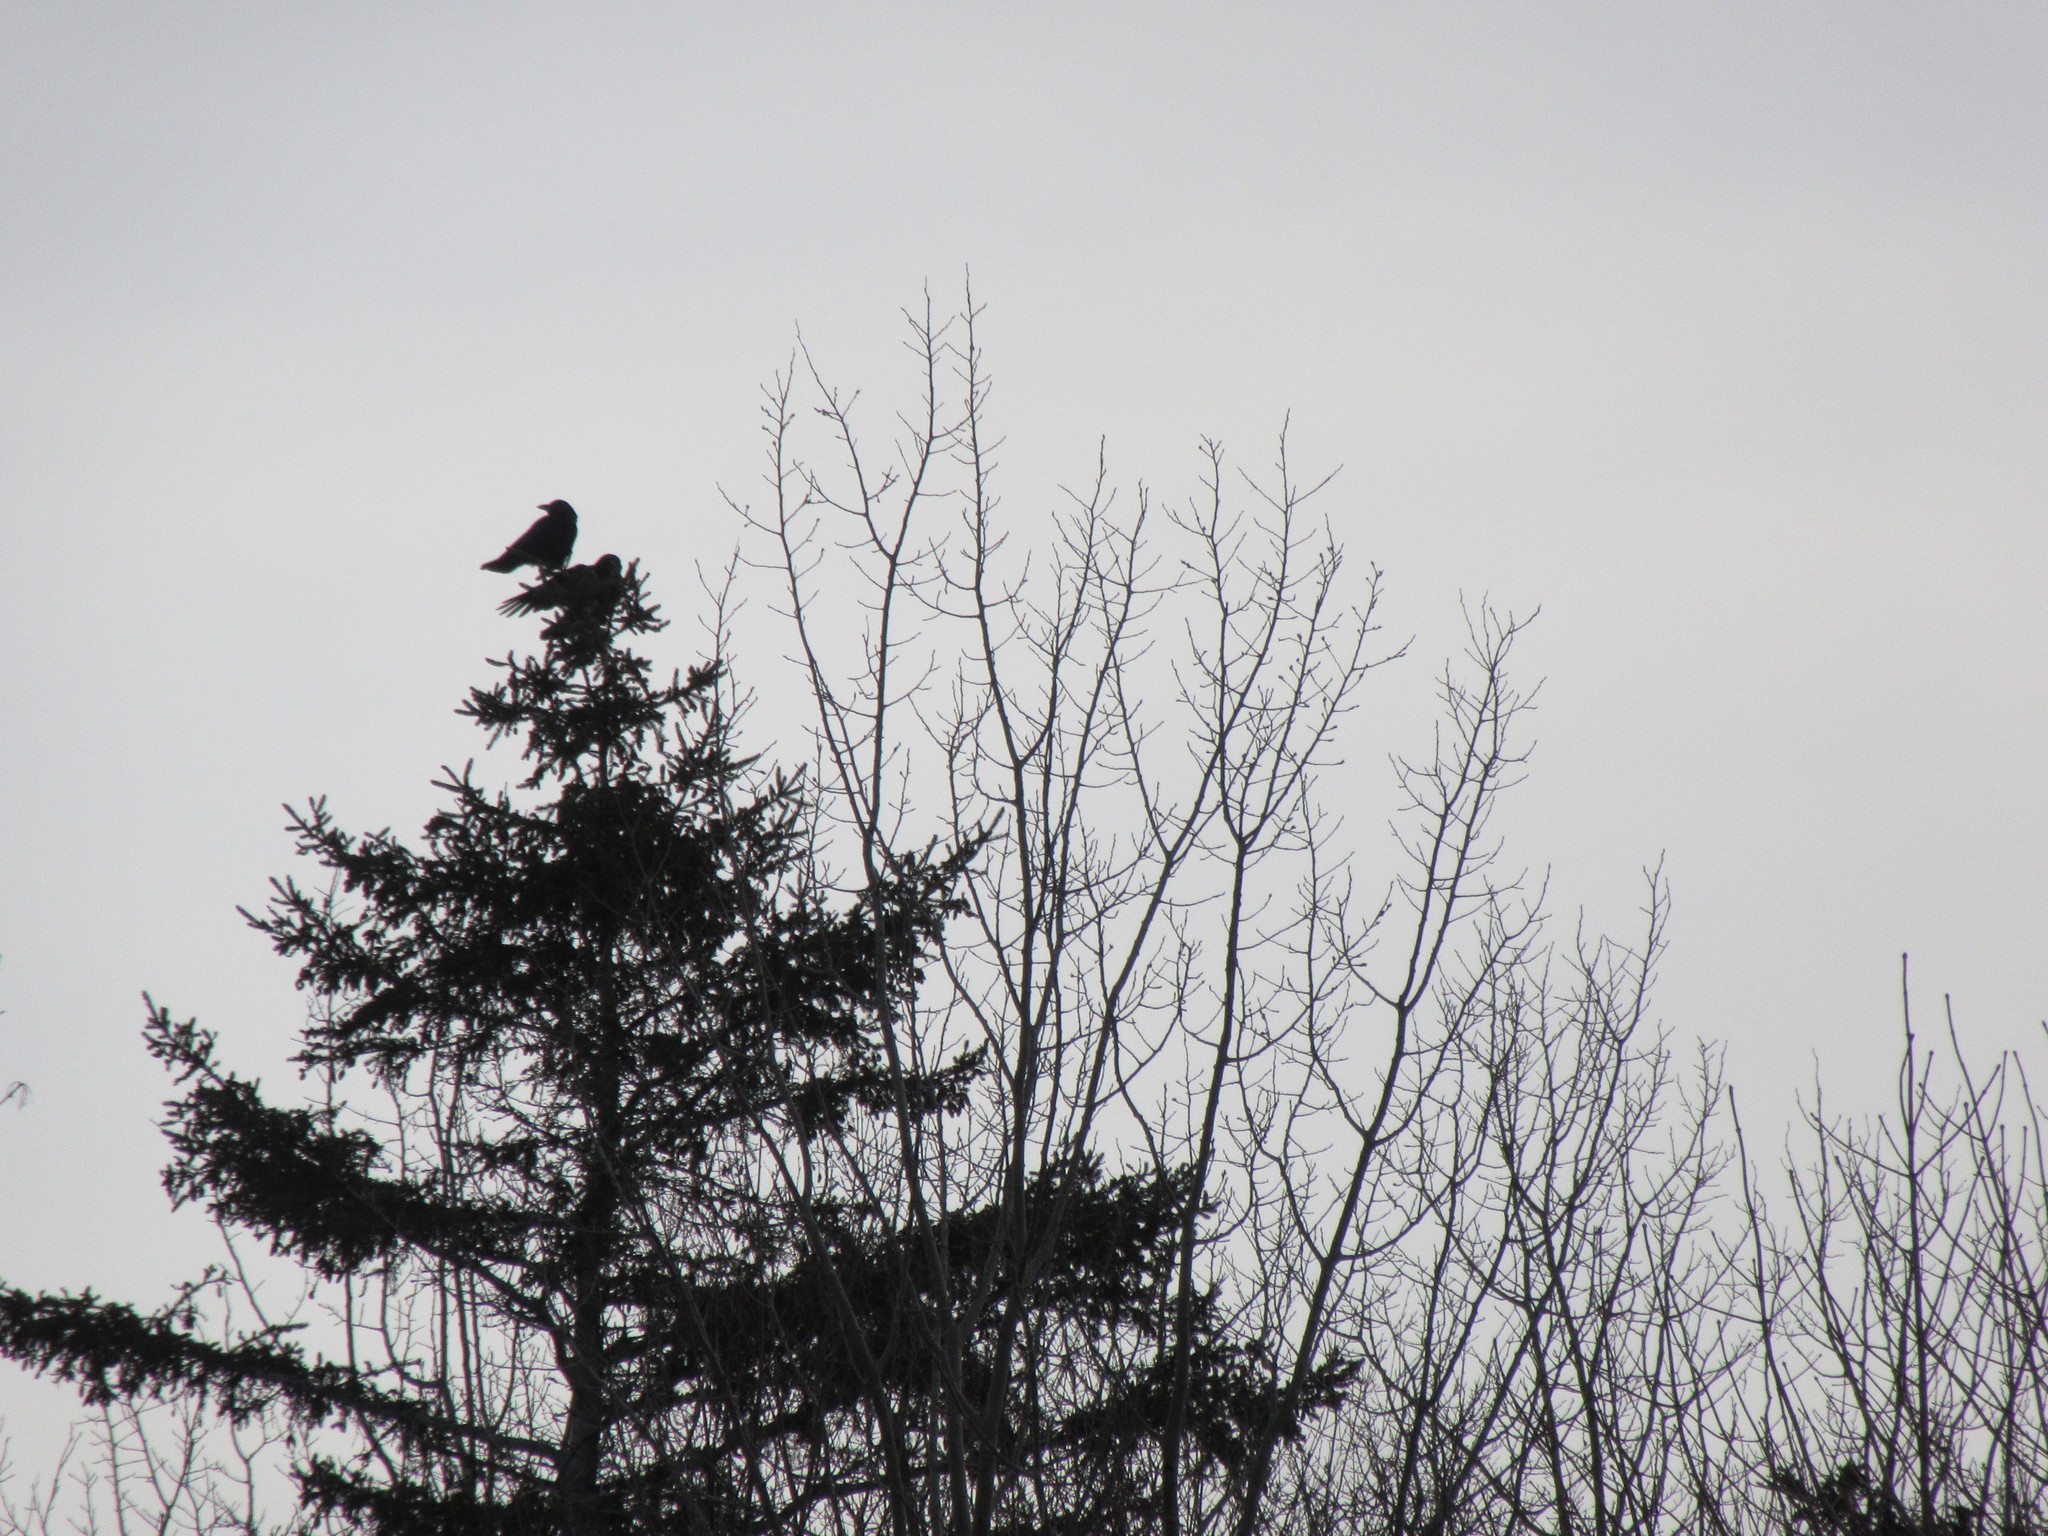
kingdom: Animalia
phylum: Chordata
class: Aves
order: Passeriformes
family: Corvidae
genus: Corvus
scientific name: Corvus brachyrhynchos
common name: American crow
